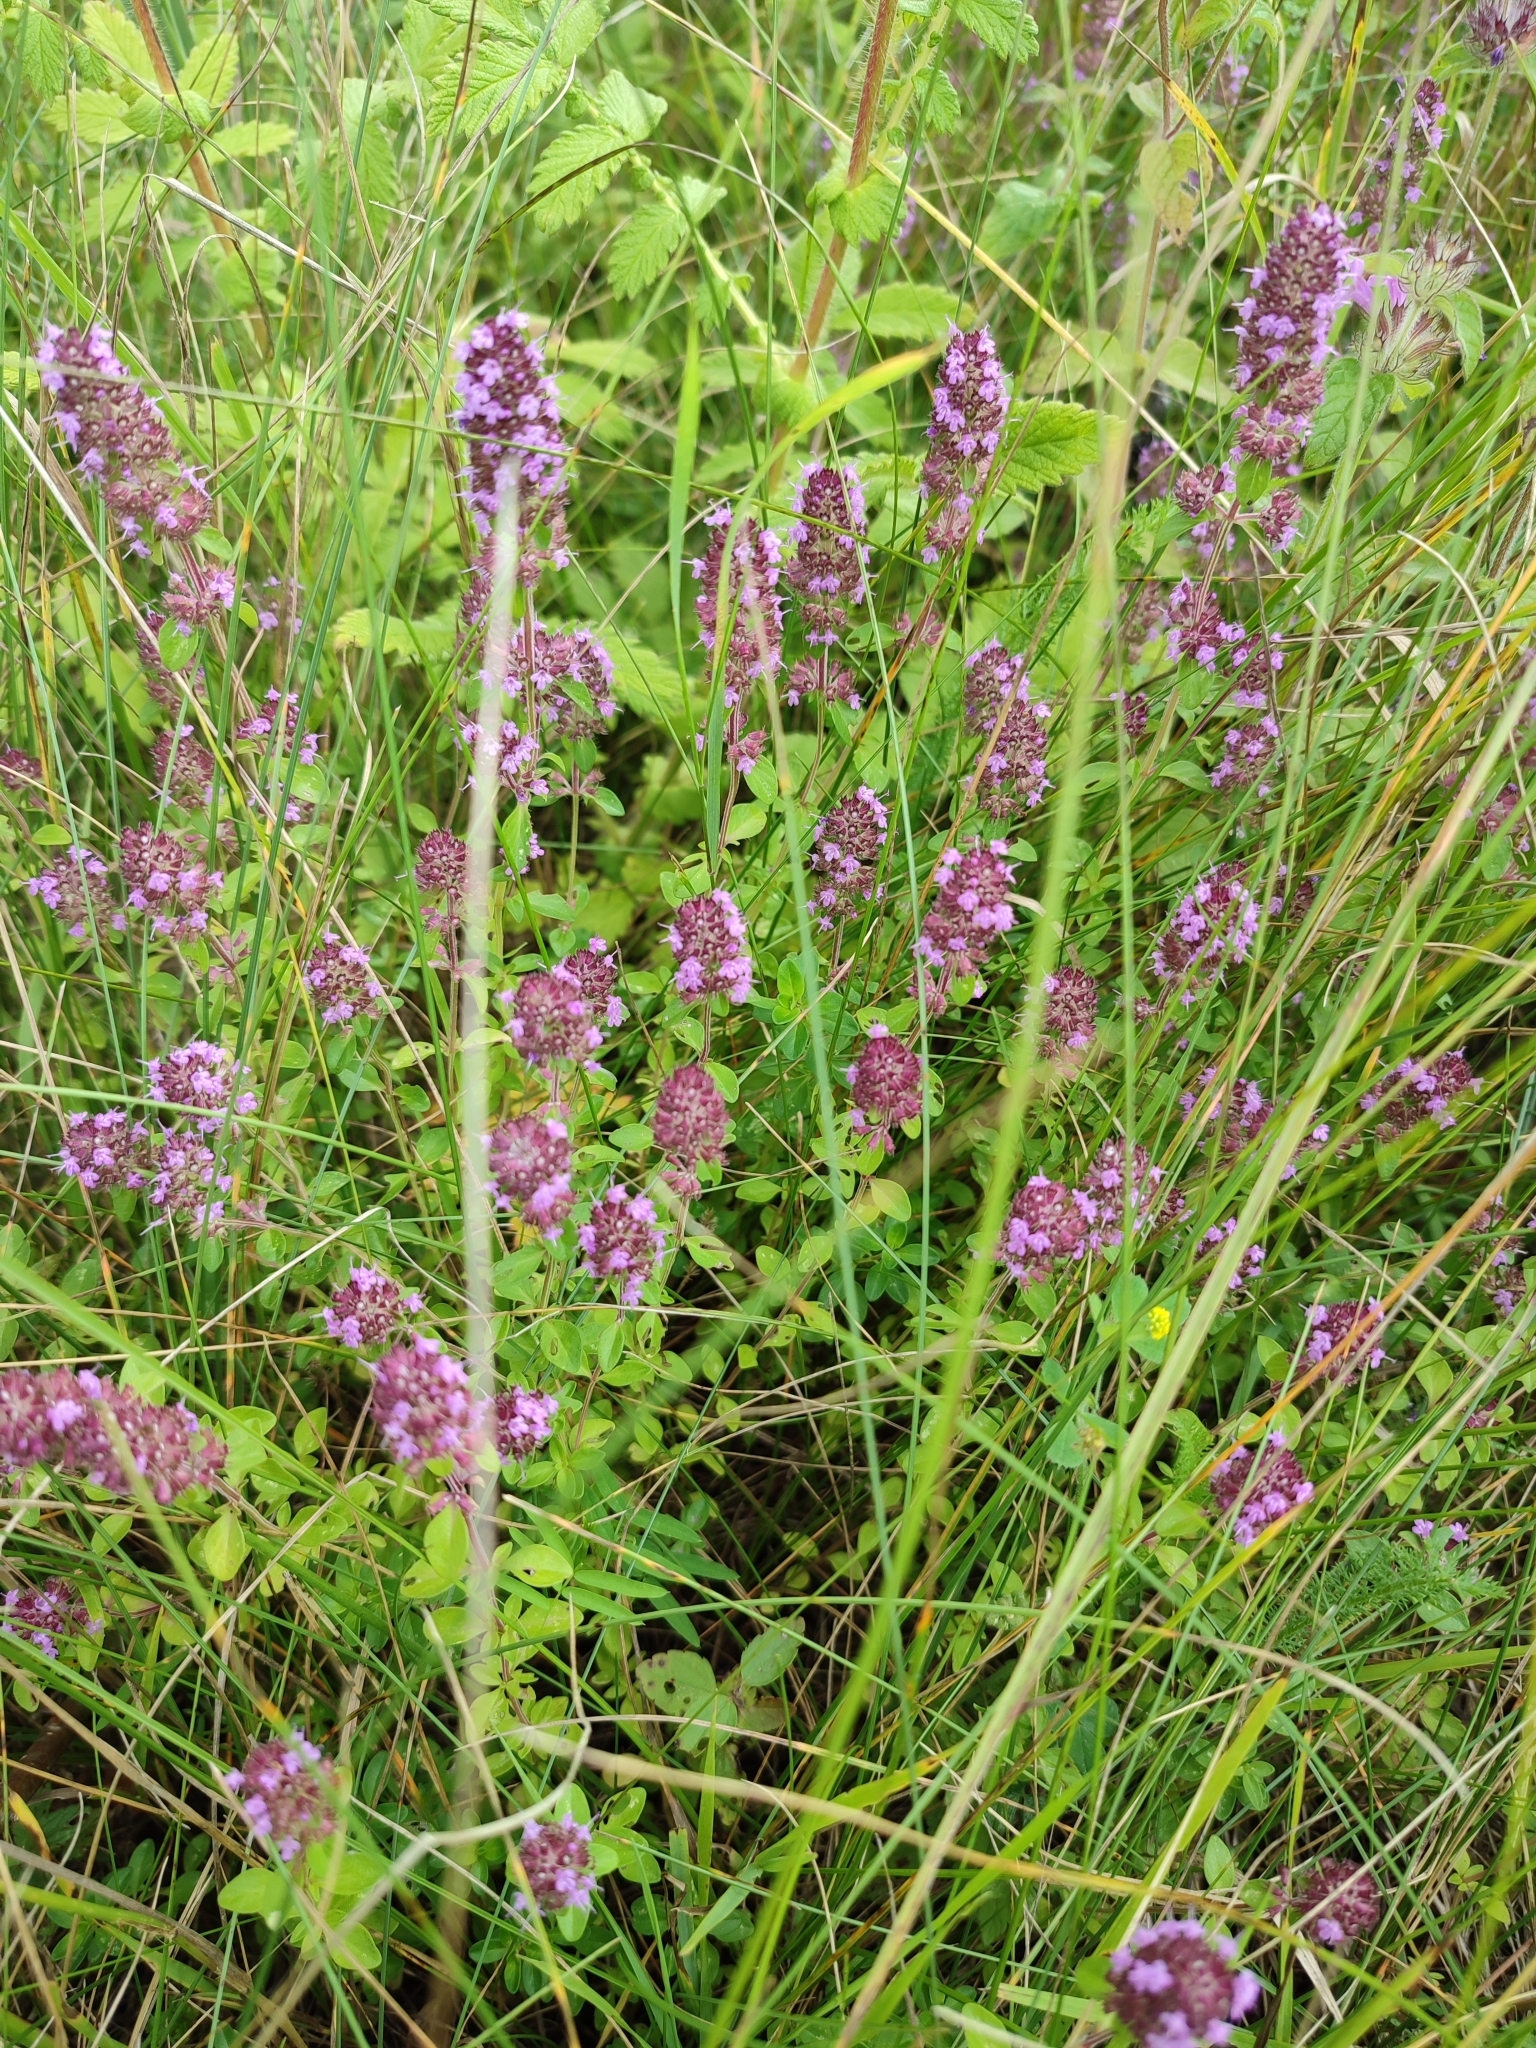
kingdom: Plantae
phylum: Tracheophyta
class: Magnoliopsida
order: Lamiales
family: Lamiaceae
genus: Thymus
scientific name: Thymus pulegioides
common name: Large thyme
